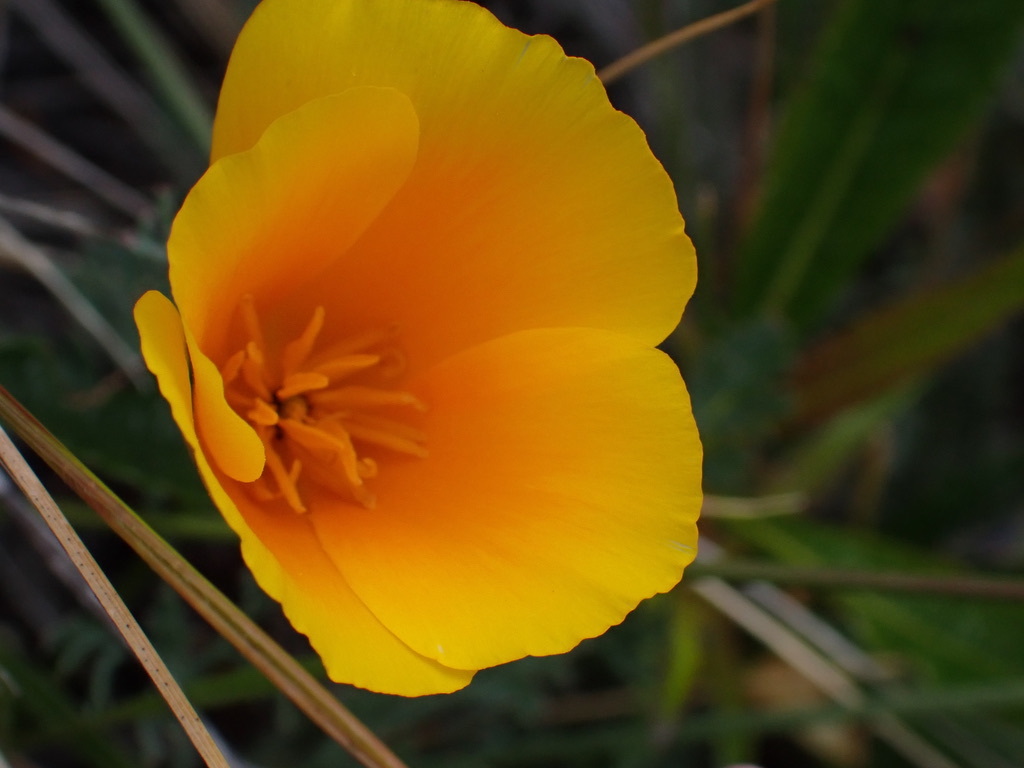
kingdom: Plantae
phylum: Tracheophyta
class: Magnoliopsida
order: Ranunculales
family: Papaveraceae
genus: Eschscholzia
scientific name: Eschscholzia californica
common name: California poppy
